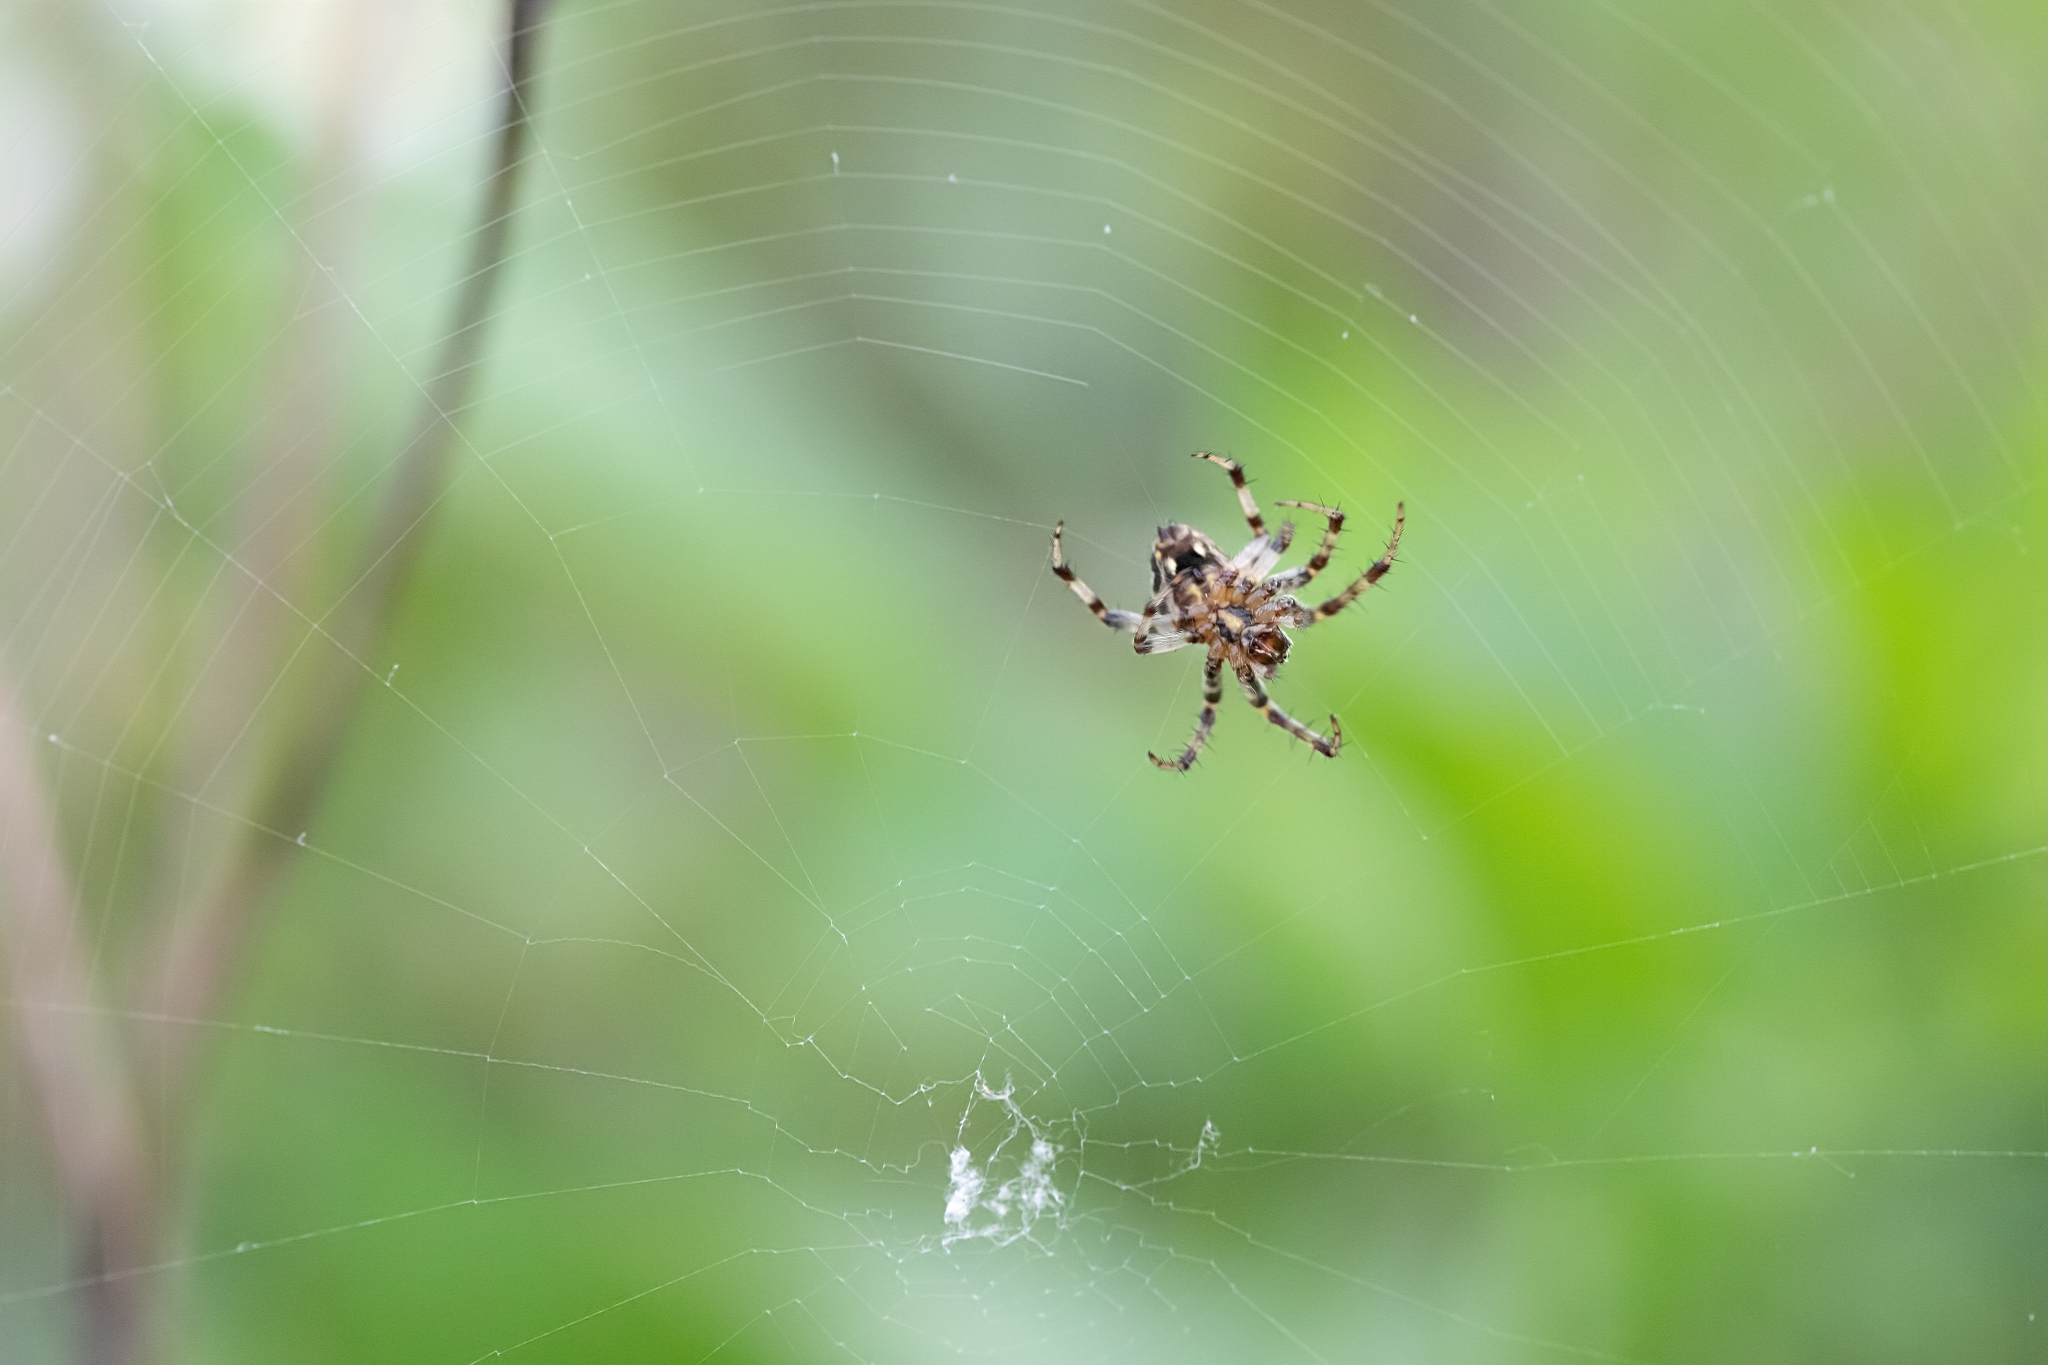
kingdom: Animalia
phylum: Arthropoda
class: Arachnida
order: Araneae
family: Araneidae
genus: Neoscona
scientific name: Neoscona arabesca
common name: Orb weavers
